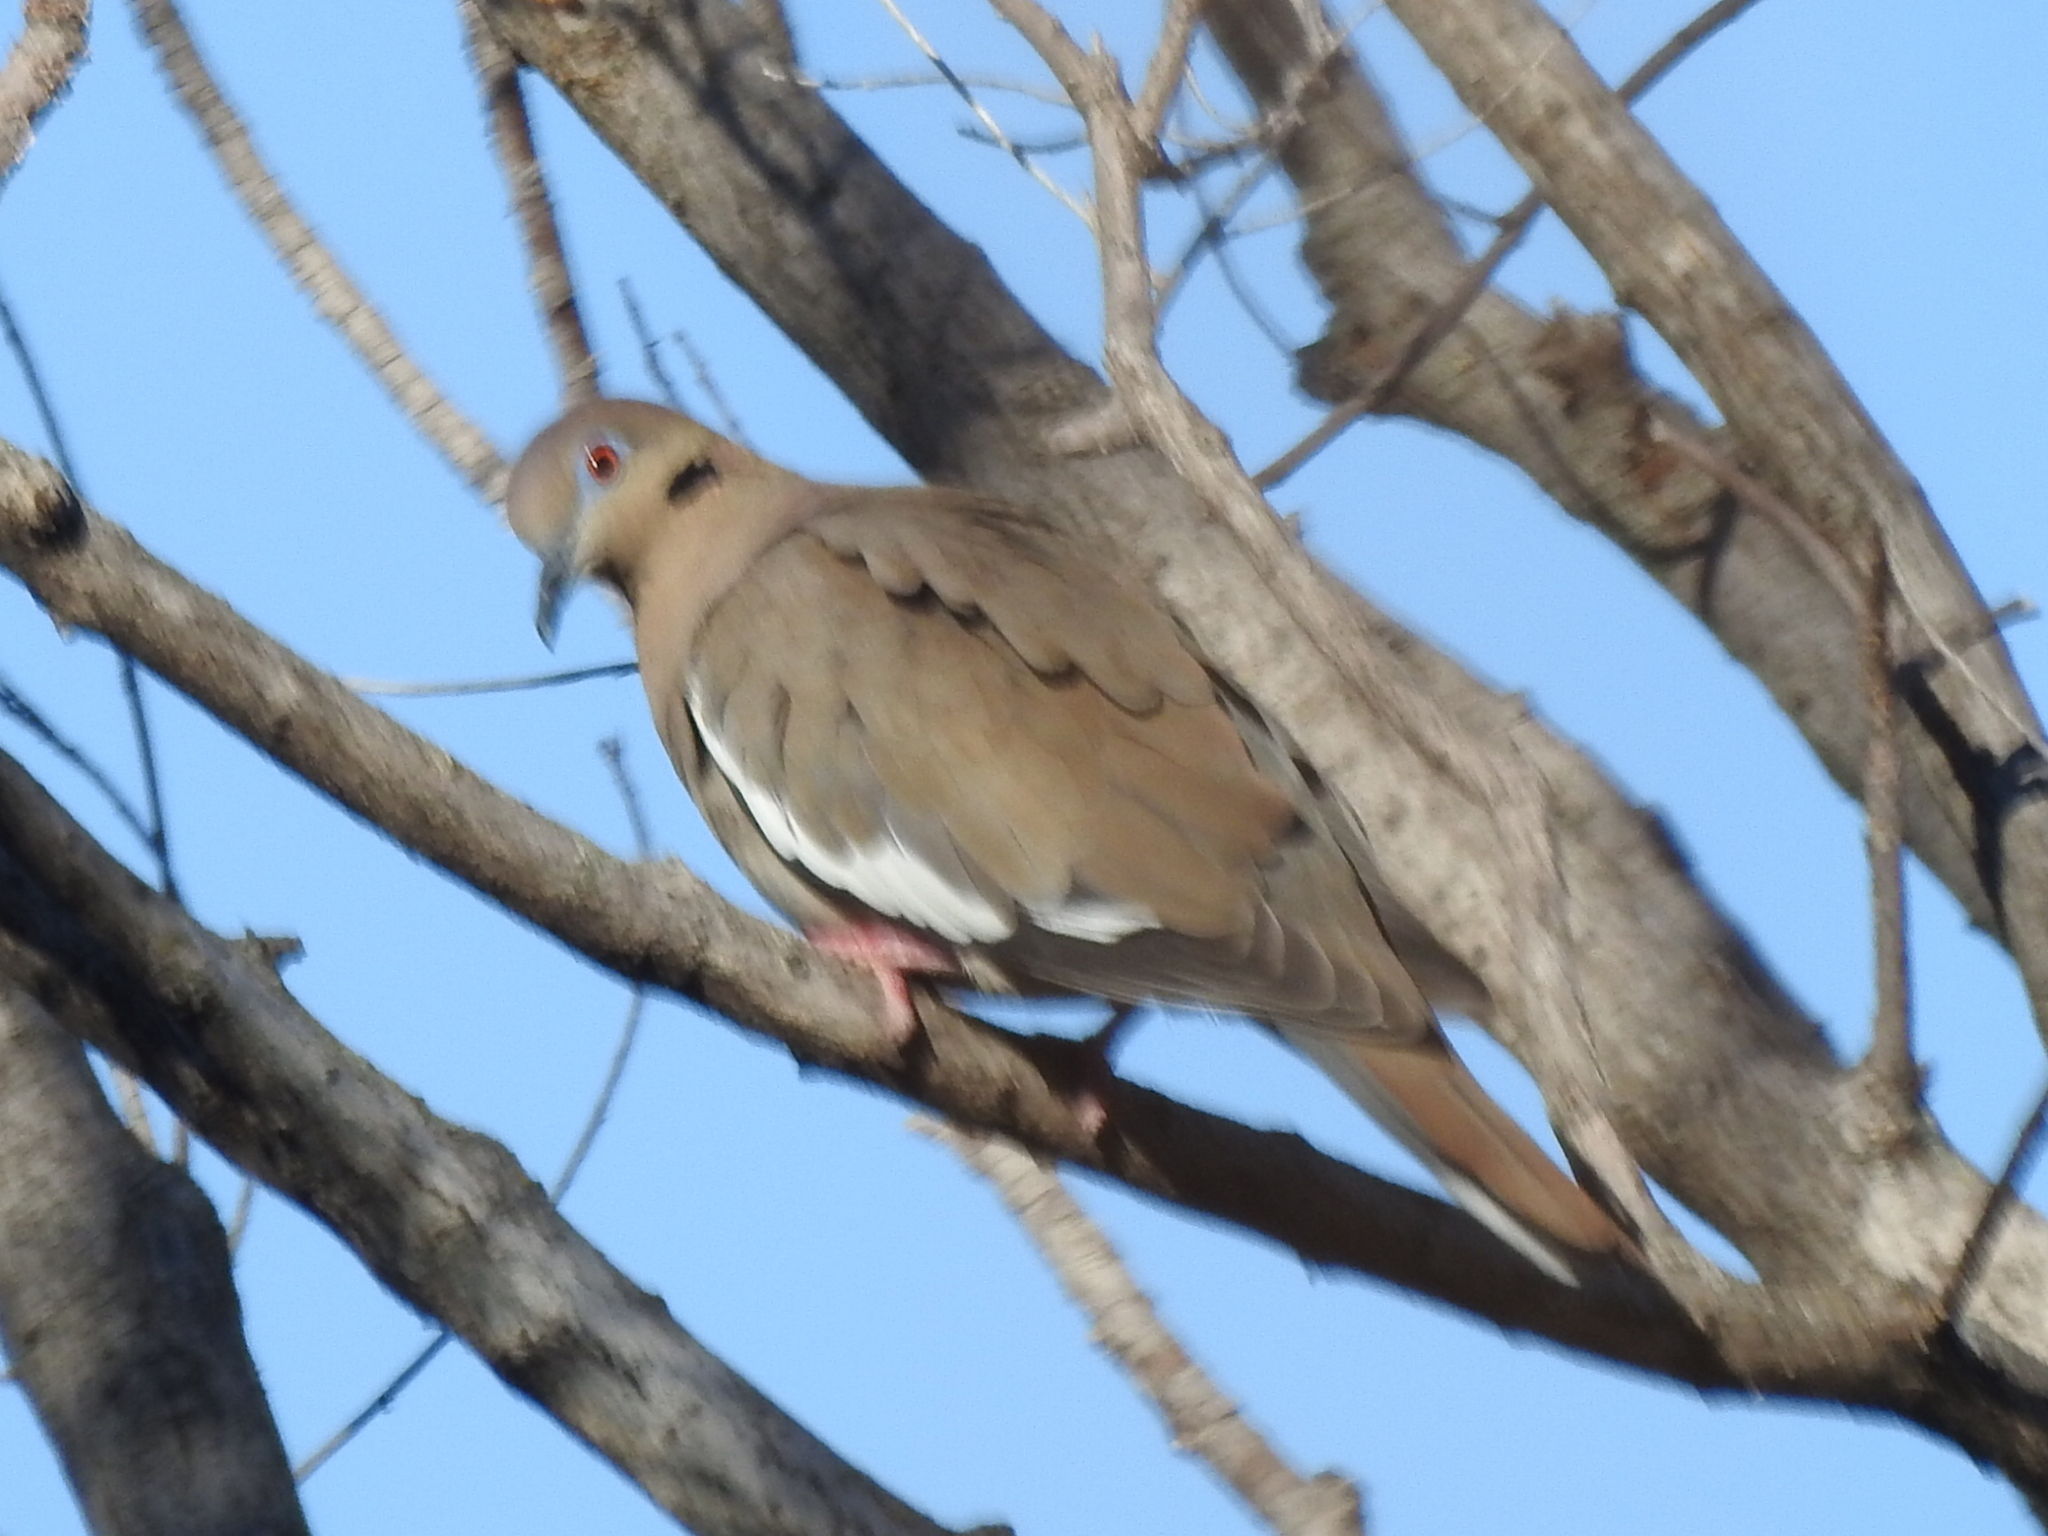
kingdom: Animalia
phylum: Chordata
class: Aves
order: Columbiformes
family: Columbidae
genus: Zenaida
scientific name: Zenaida asiatica
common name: White-winged dove
